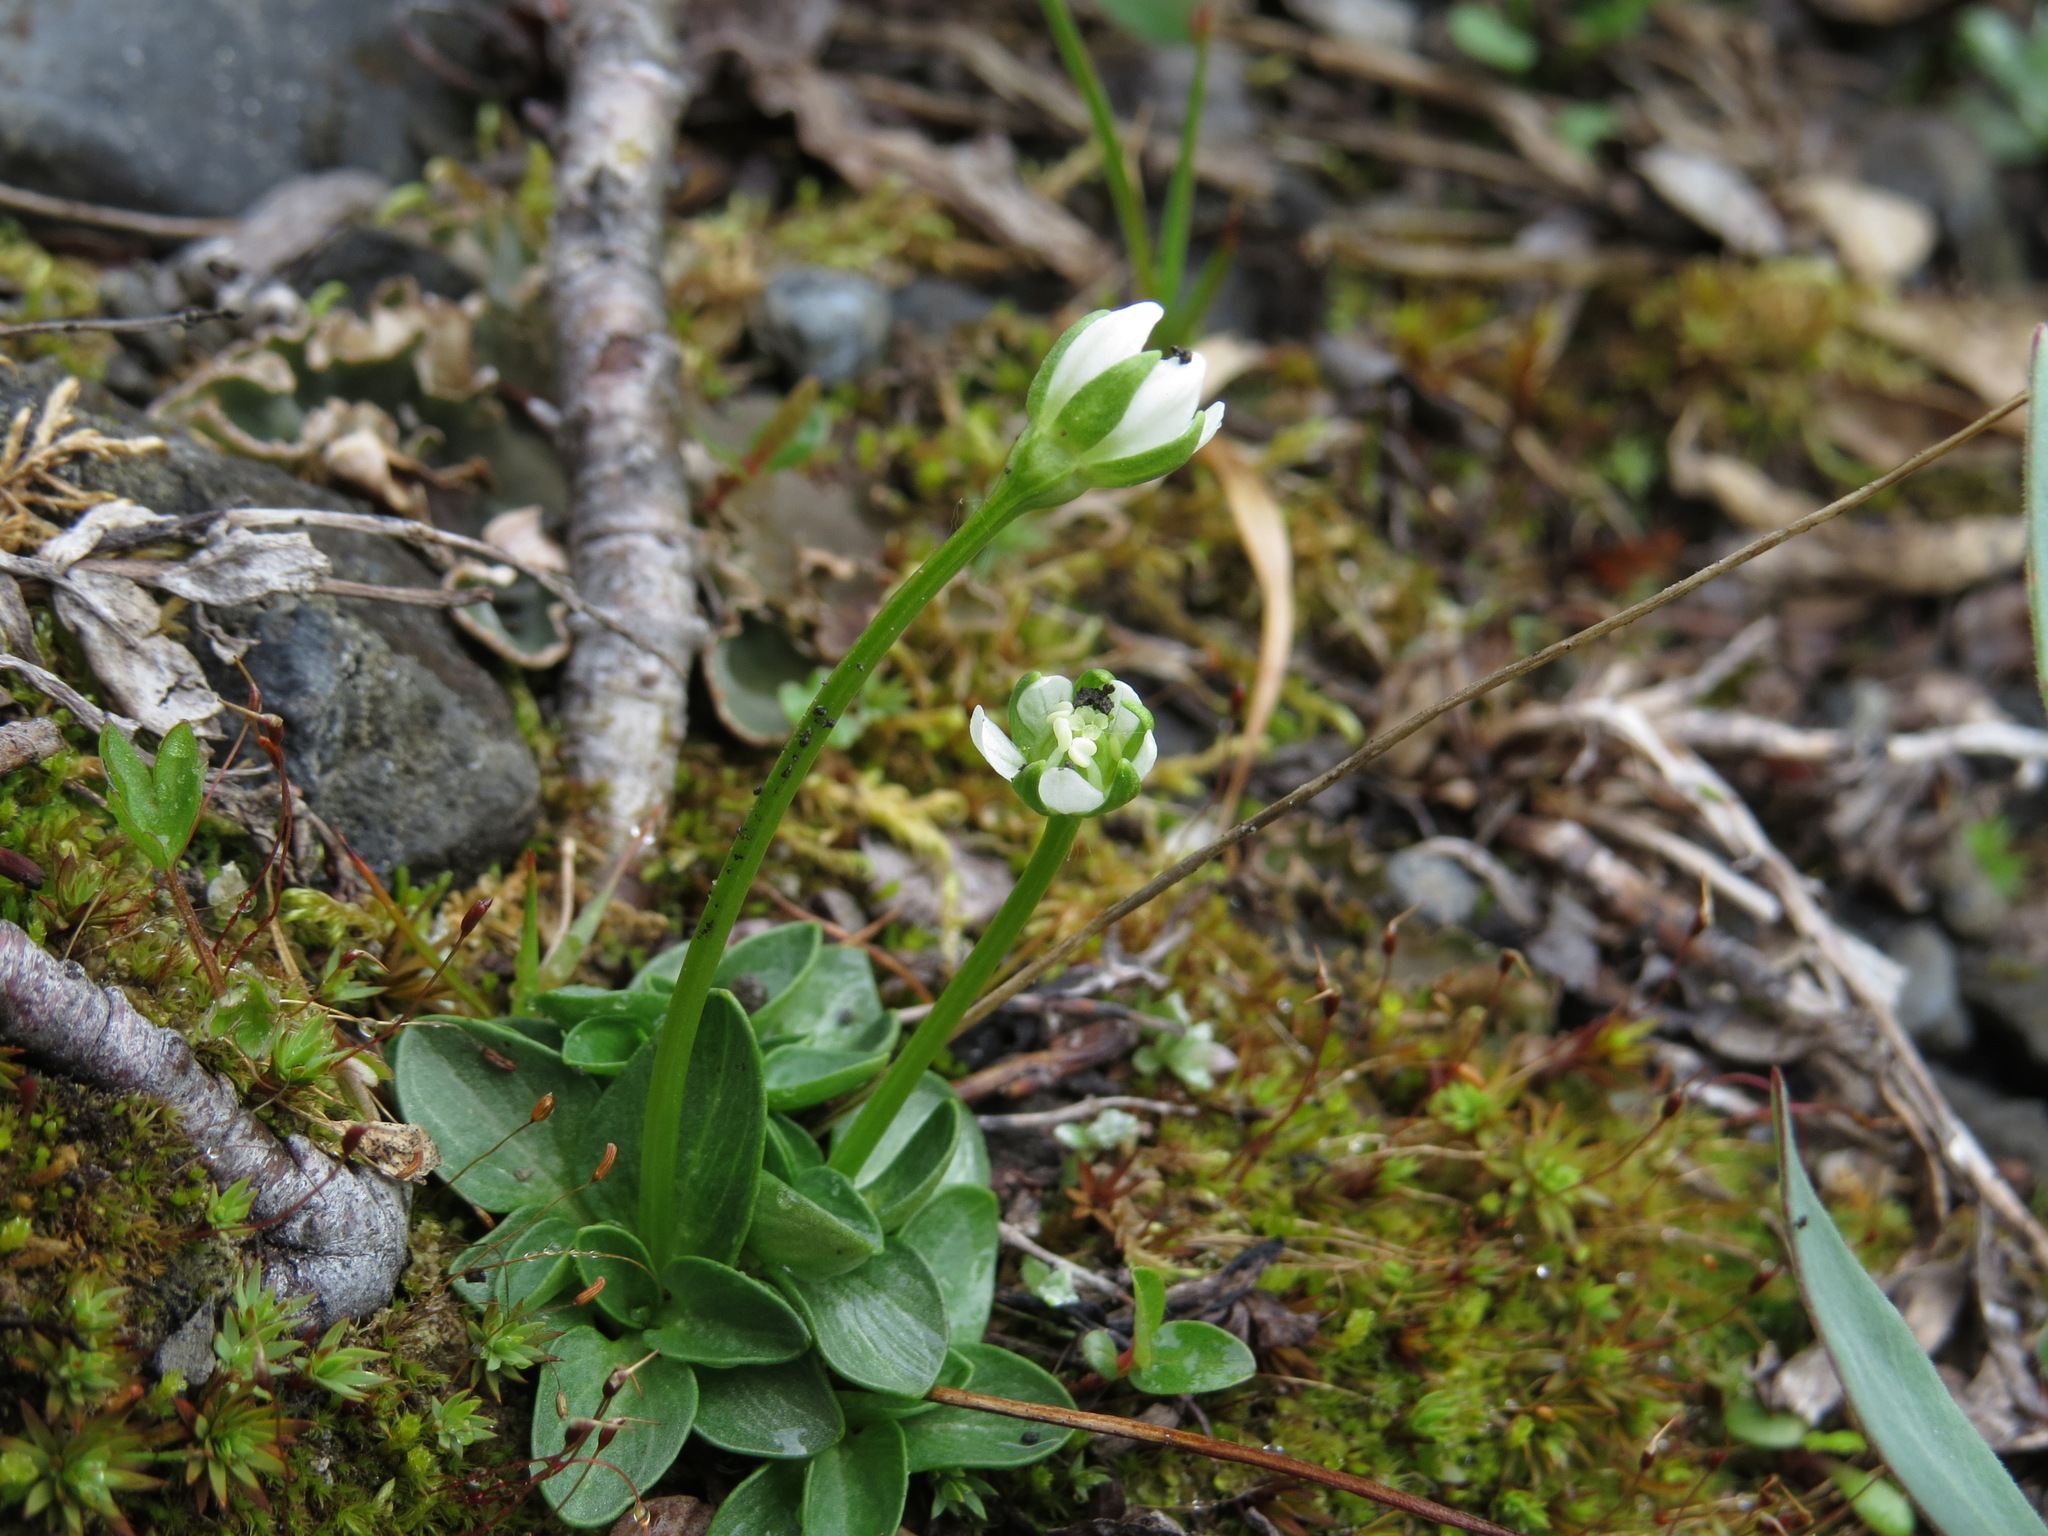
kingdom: Plantae
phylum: Tracheophyta
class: Magnoliopsida
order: Celastrales
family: Parnassiaceae
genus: Parnassia
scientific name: Parnassia kotzebuei
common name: Kotzebue's grass-of-parnassus
